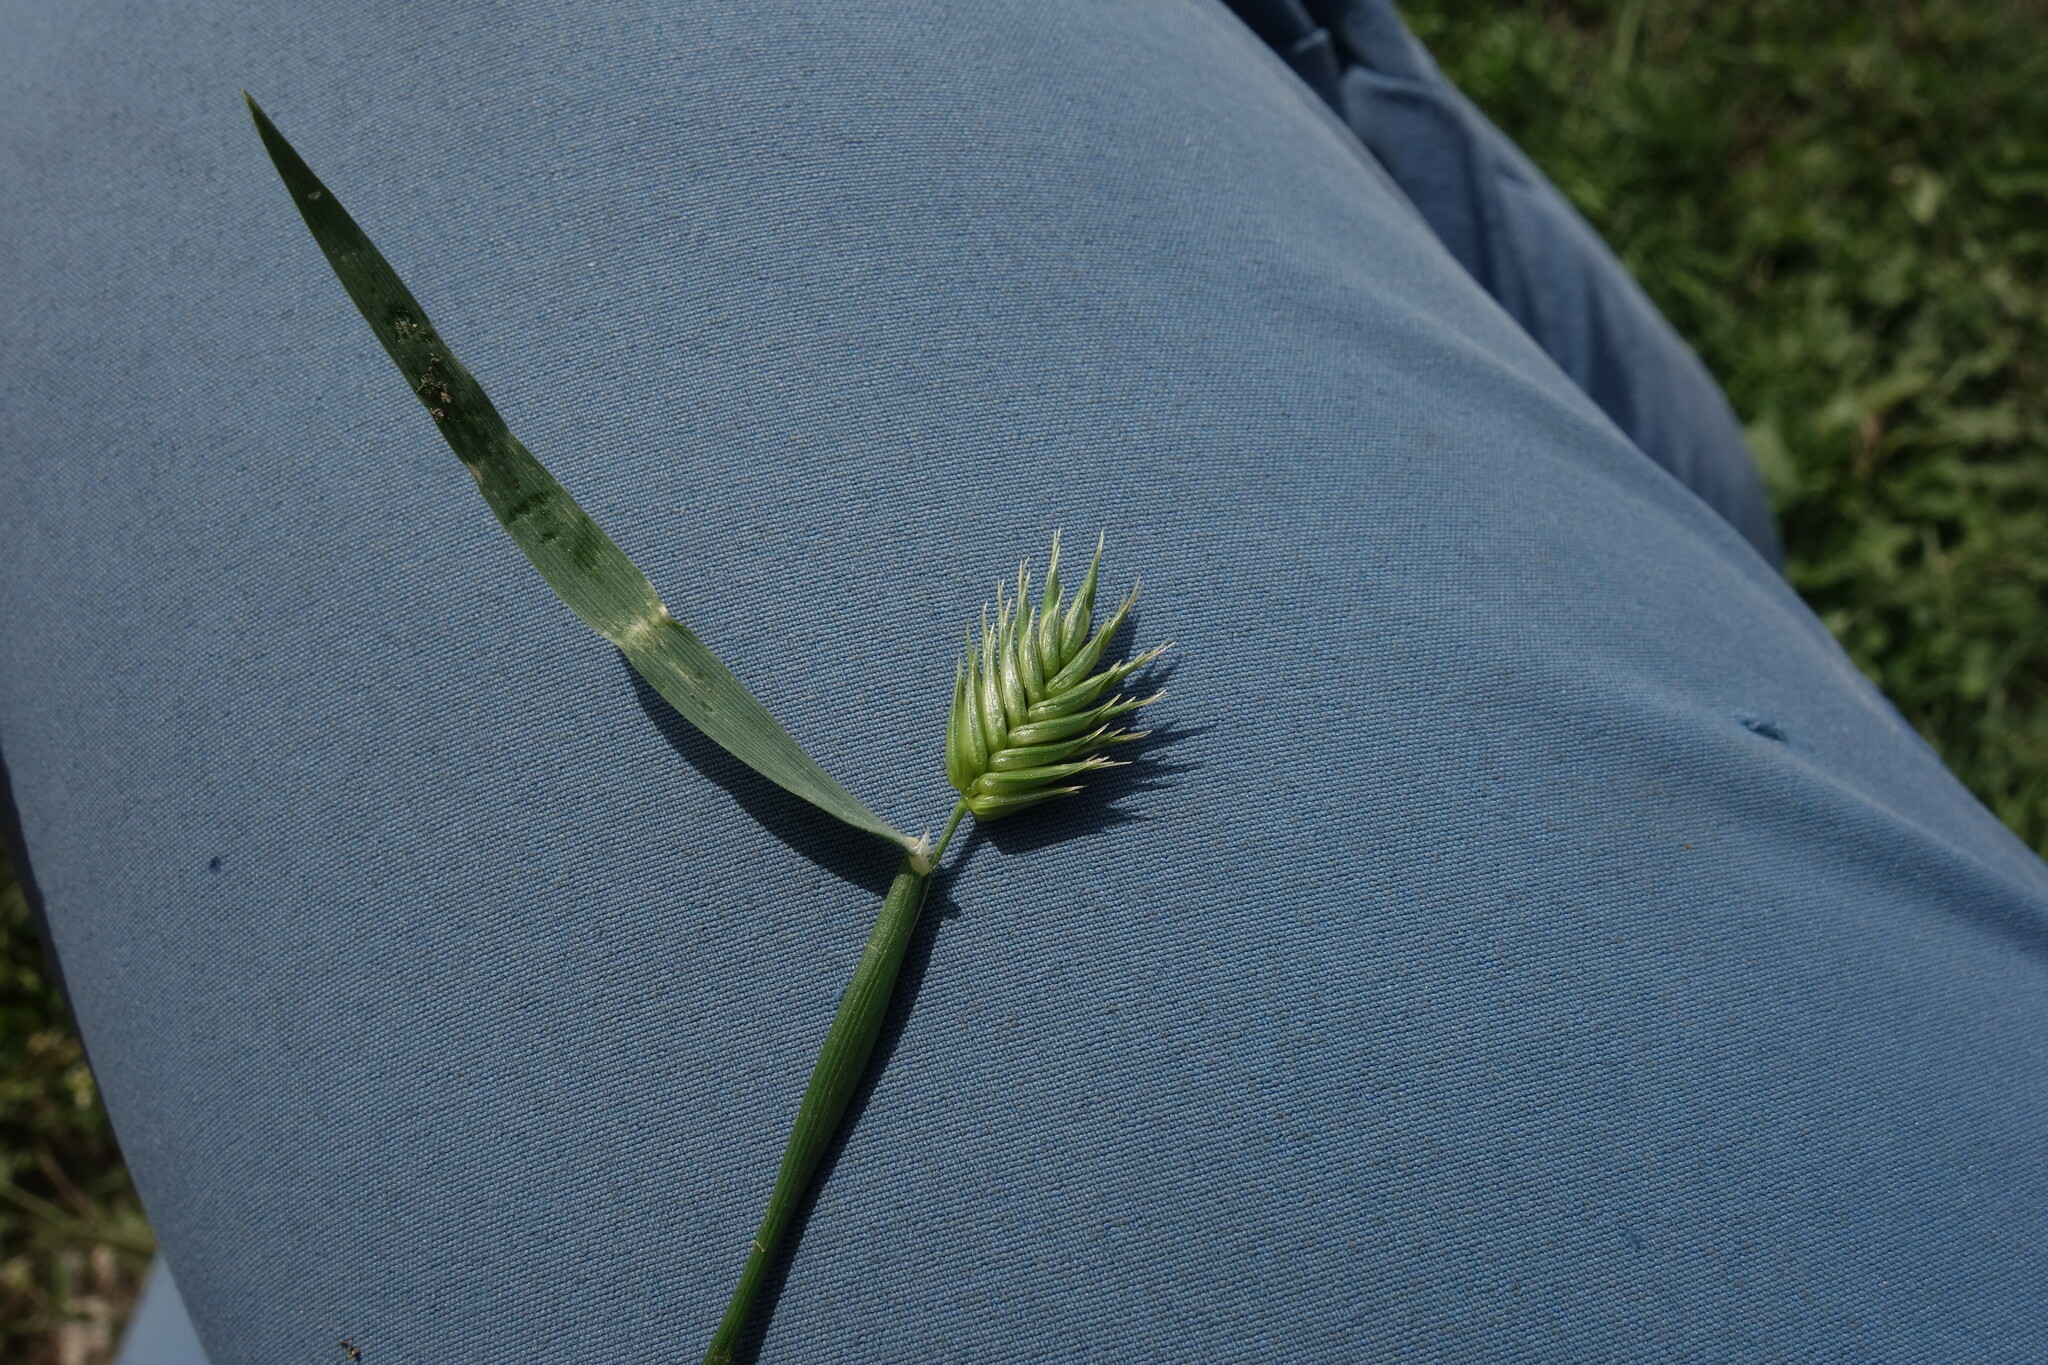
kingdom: Plantae
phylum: Tracheophyta
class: Liliopsida
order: Poales
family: Poaceae
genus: Eremopyrum
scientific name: Eremopyrum triticeum
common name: Annual wheatgrass
